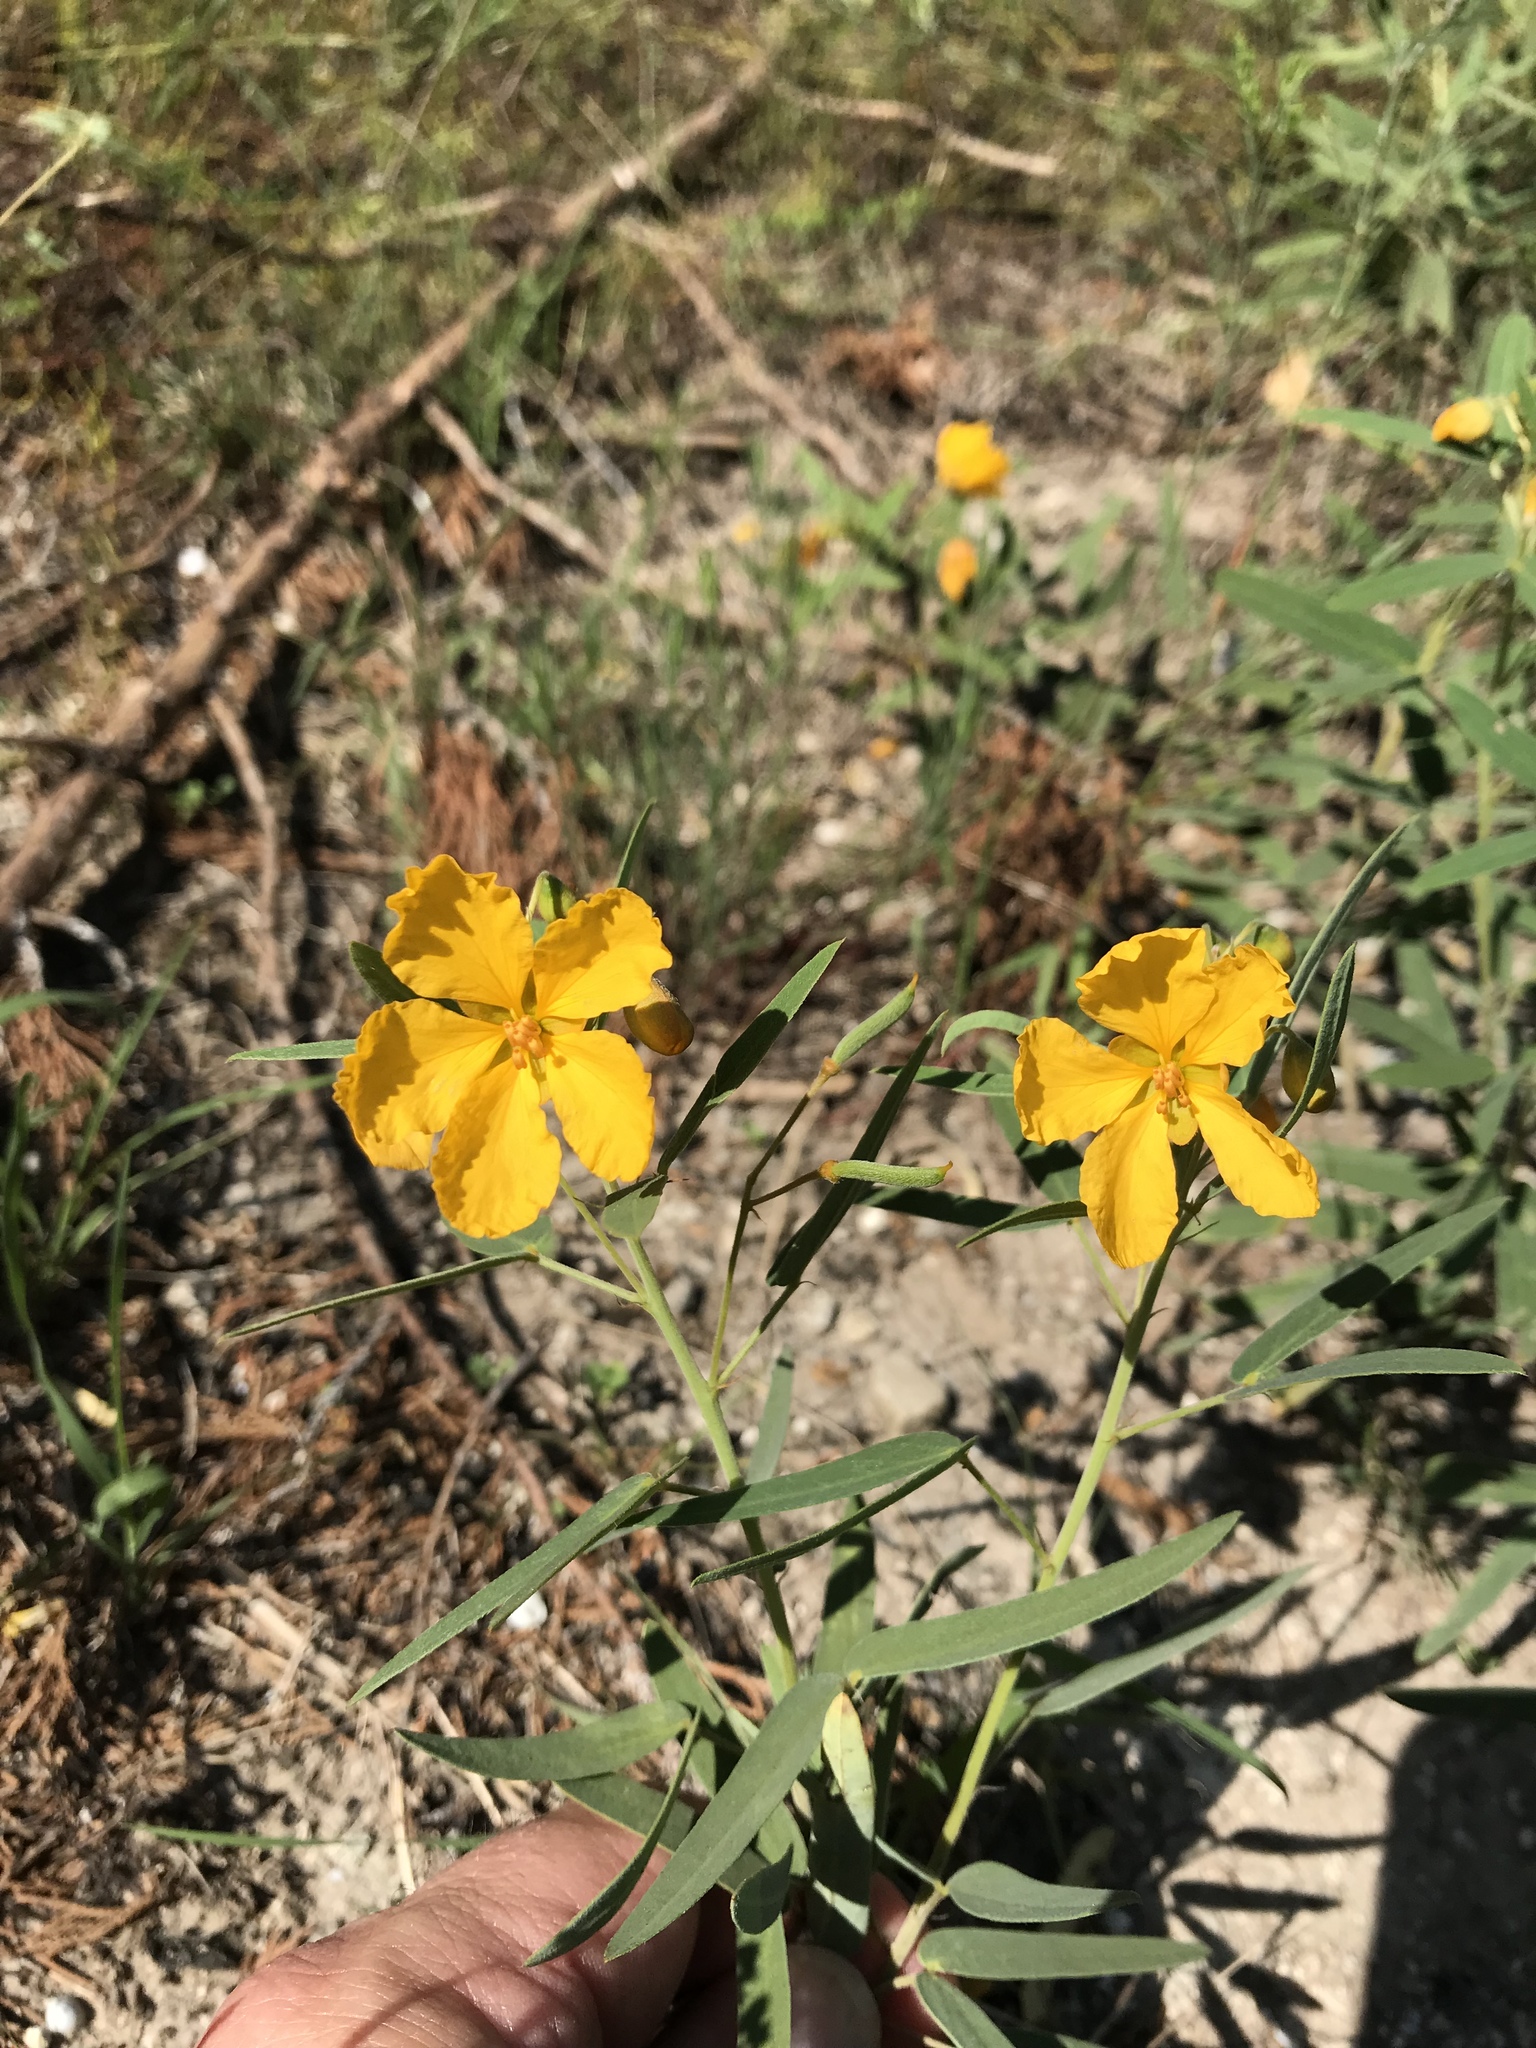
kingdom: Plantae
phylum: Tracheophyta
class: Magnoliopsida
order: Fabales
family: Fabaceae
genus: Senna
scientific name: Senna roemeriana
